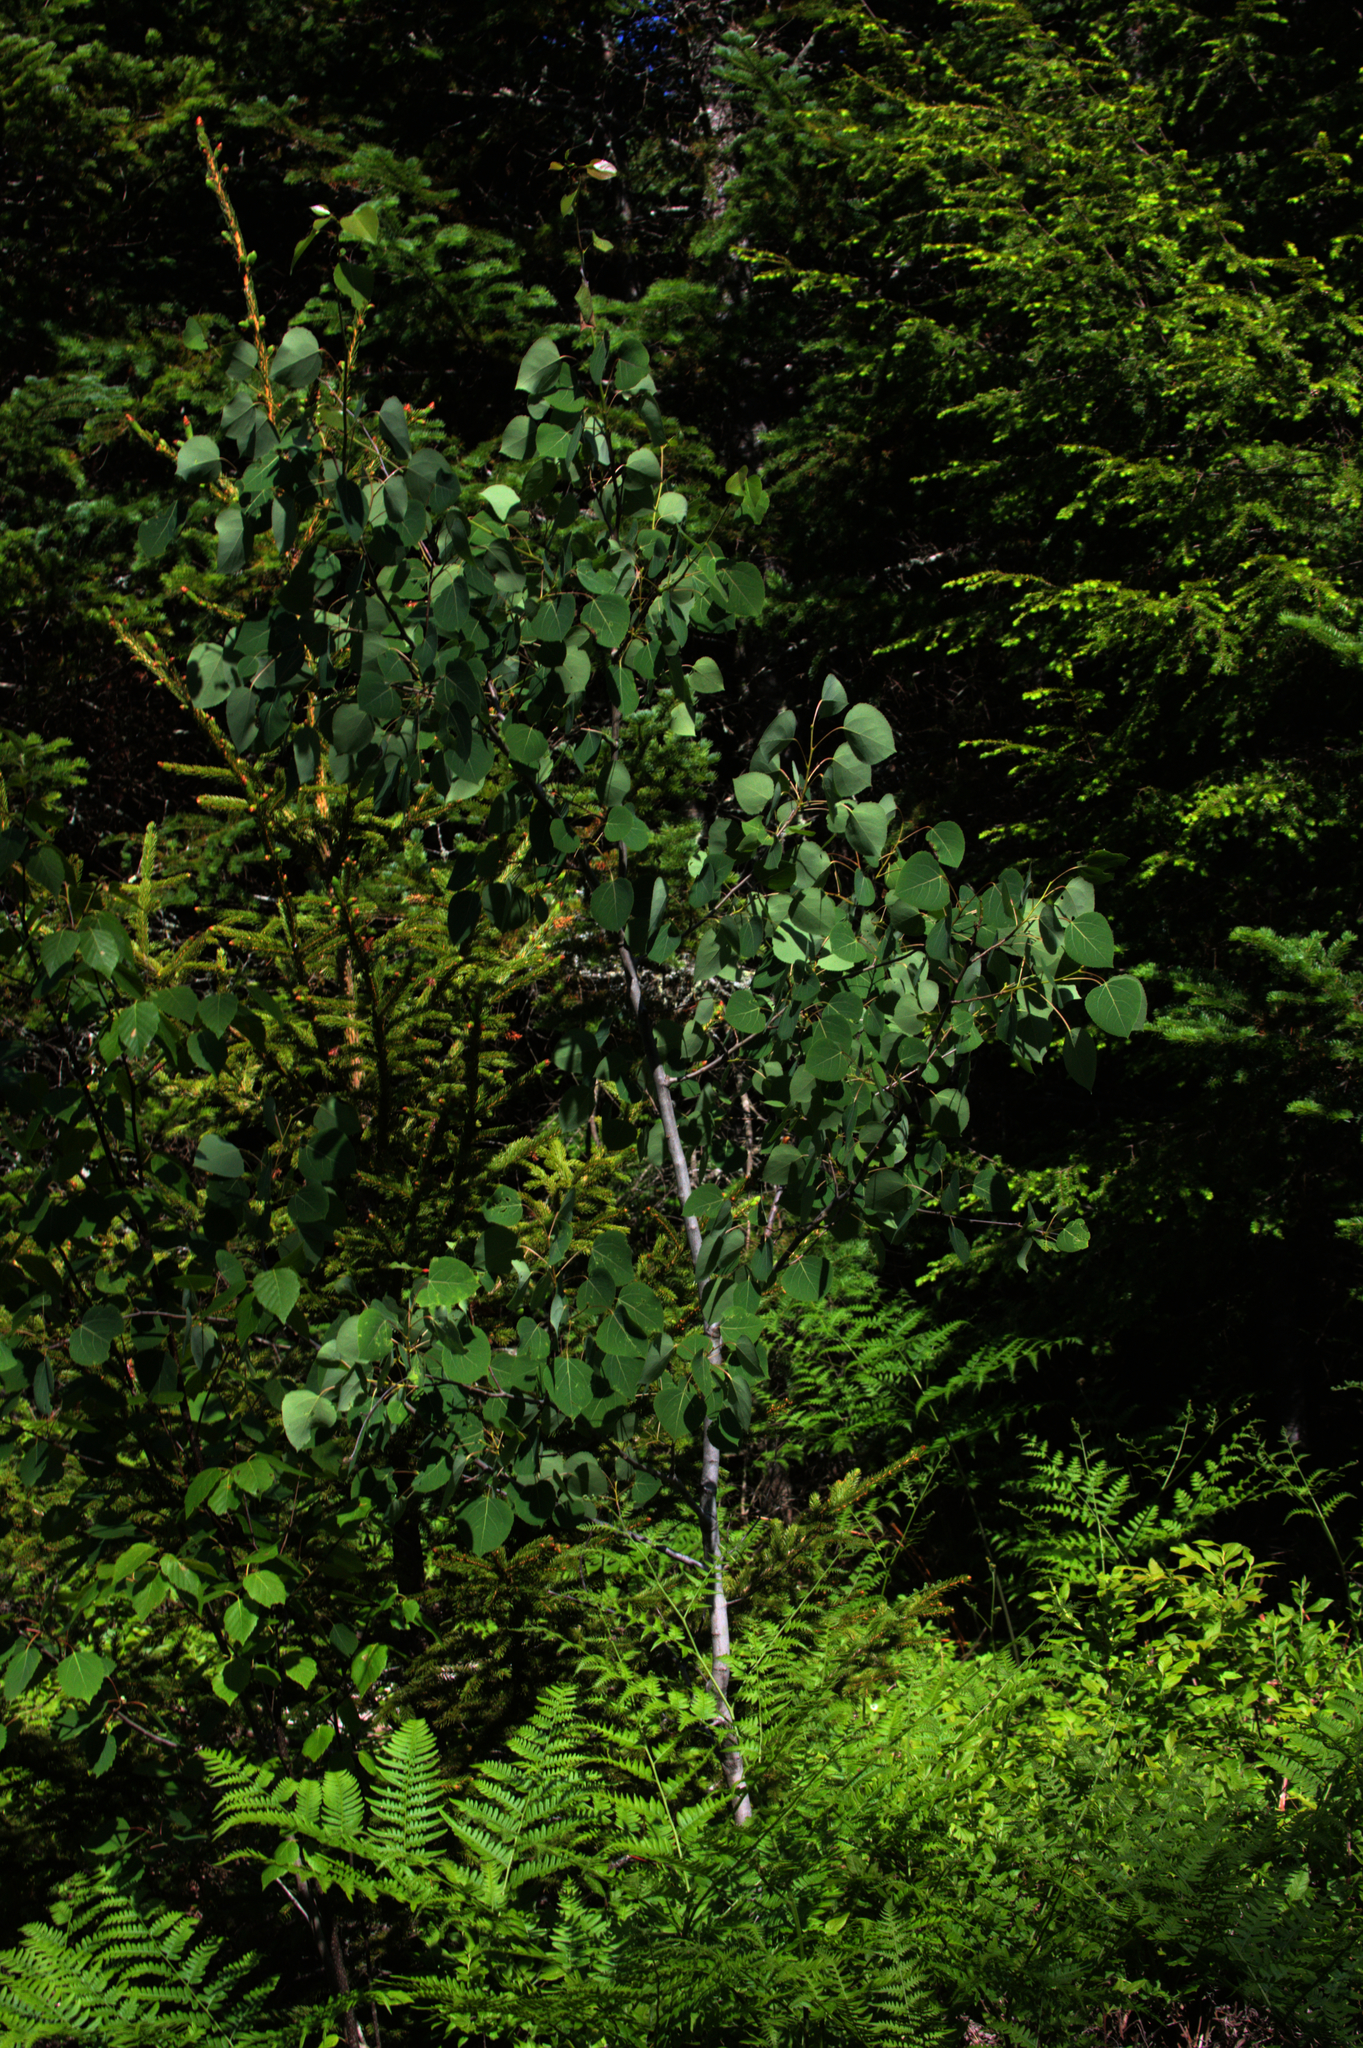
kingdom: Plantae
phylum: Tracheophyta
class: Magnoliopsida
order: Malpighiales
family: Salicaceae
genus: Populus
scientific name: Populus tremuloides
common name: Quaking aspen
